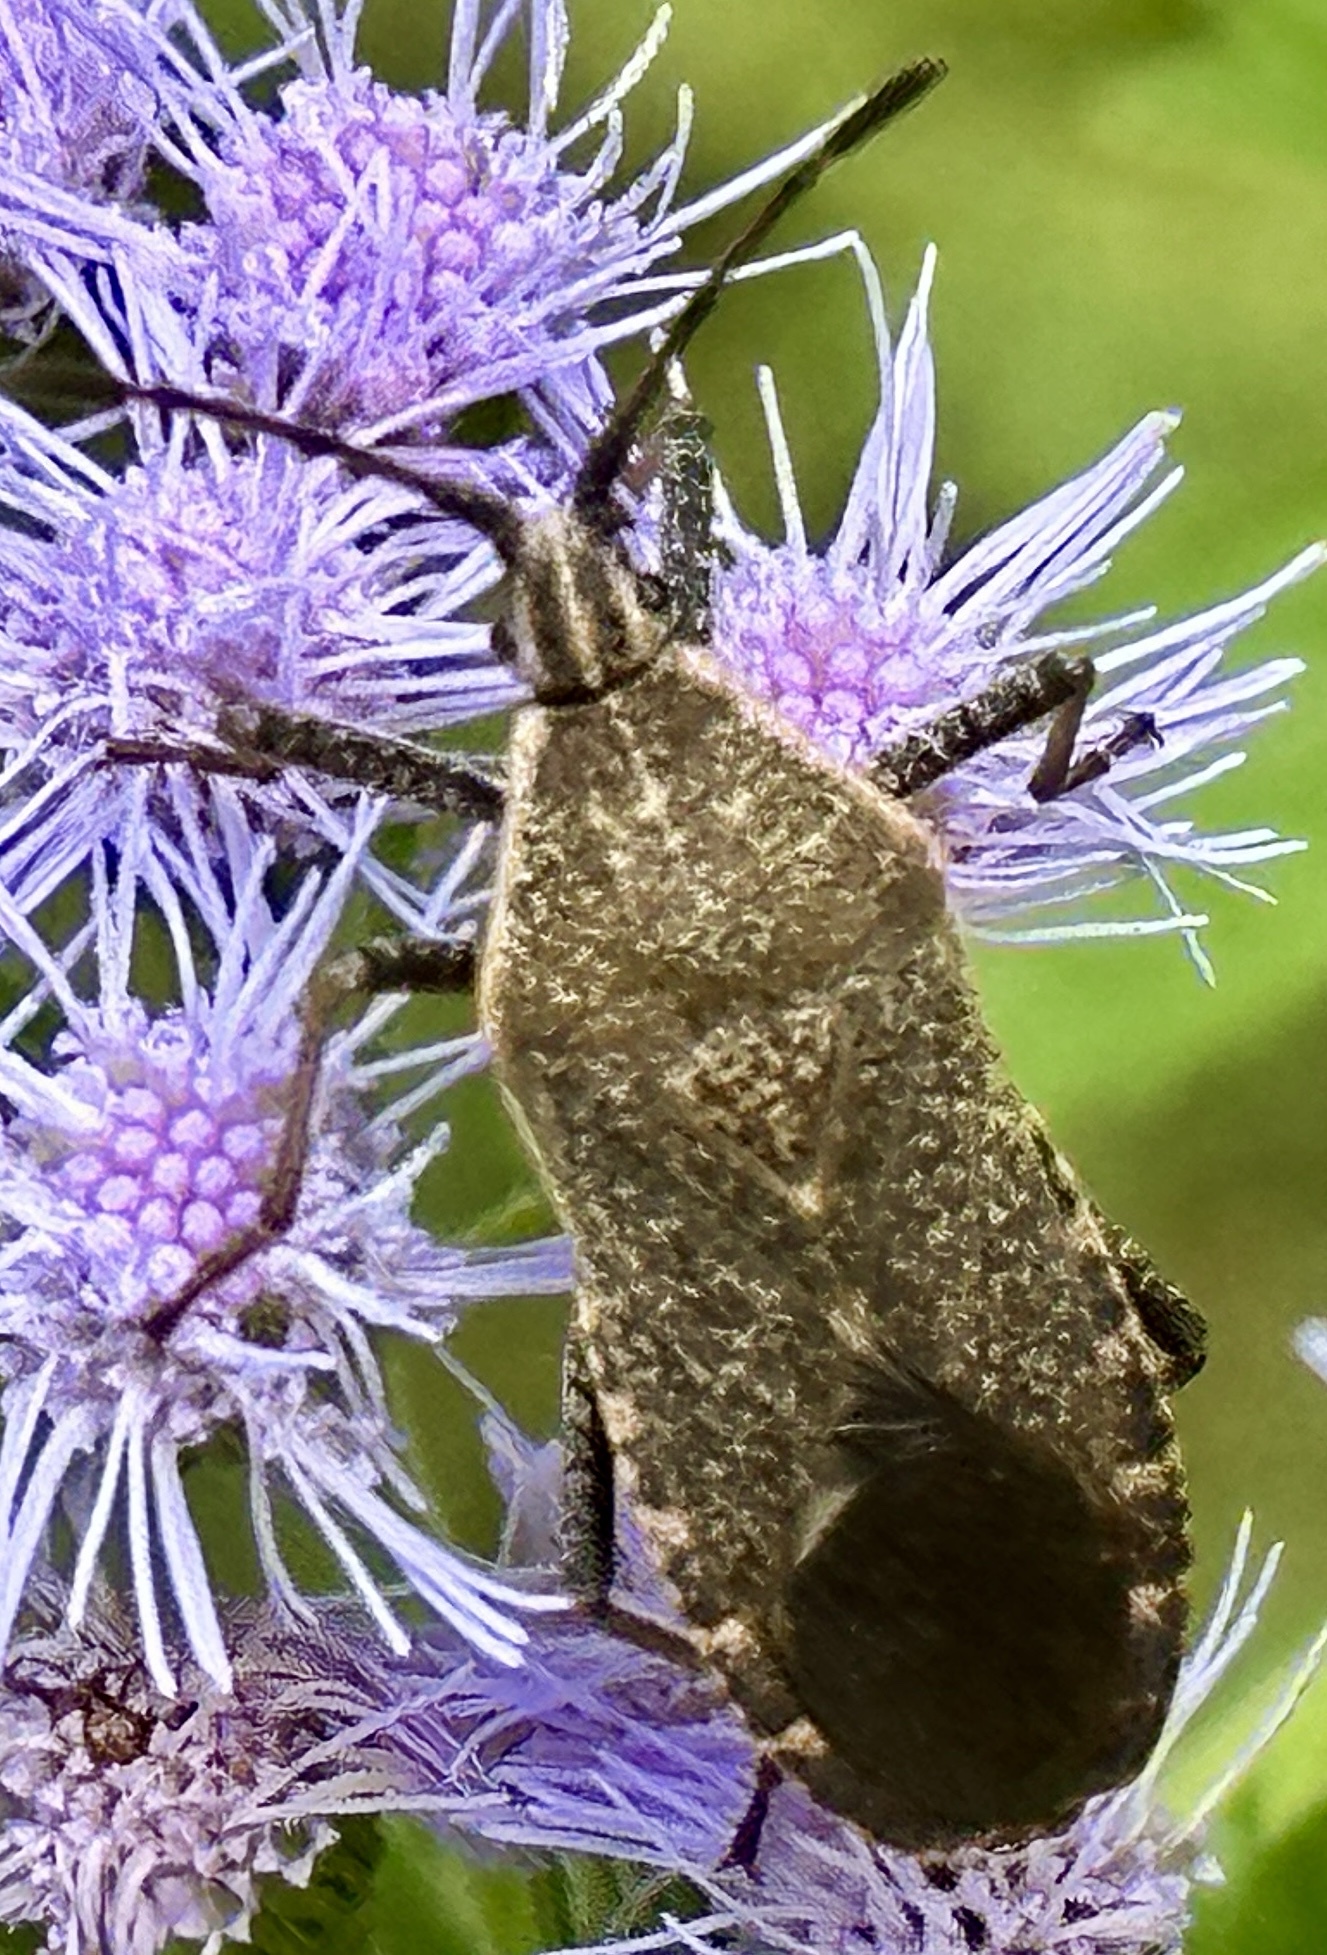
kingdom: Animalia
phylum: Arthropoda
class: Insecta
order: Hemiptera
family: Coreidae
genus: Anasa
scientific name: Anasa tristis
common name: Squash bug
